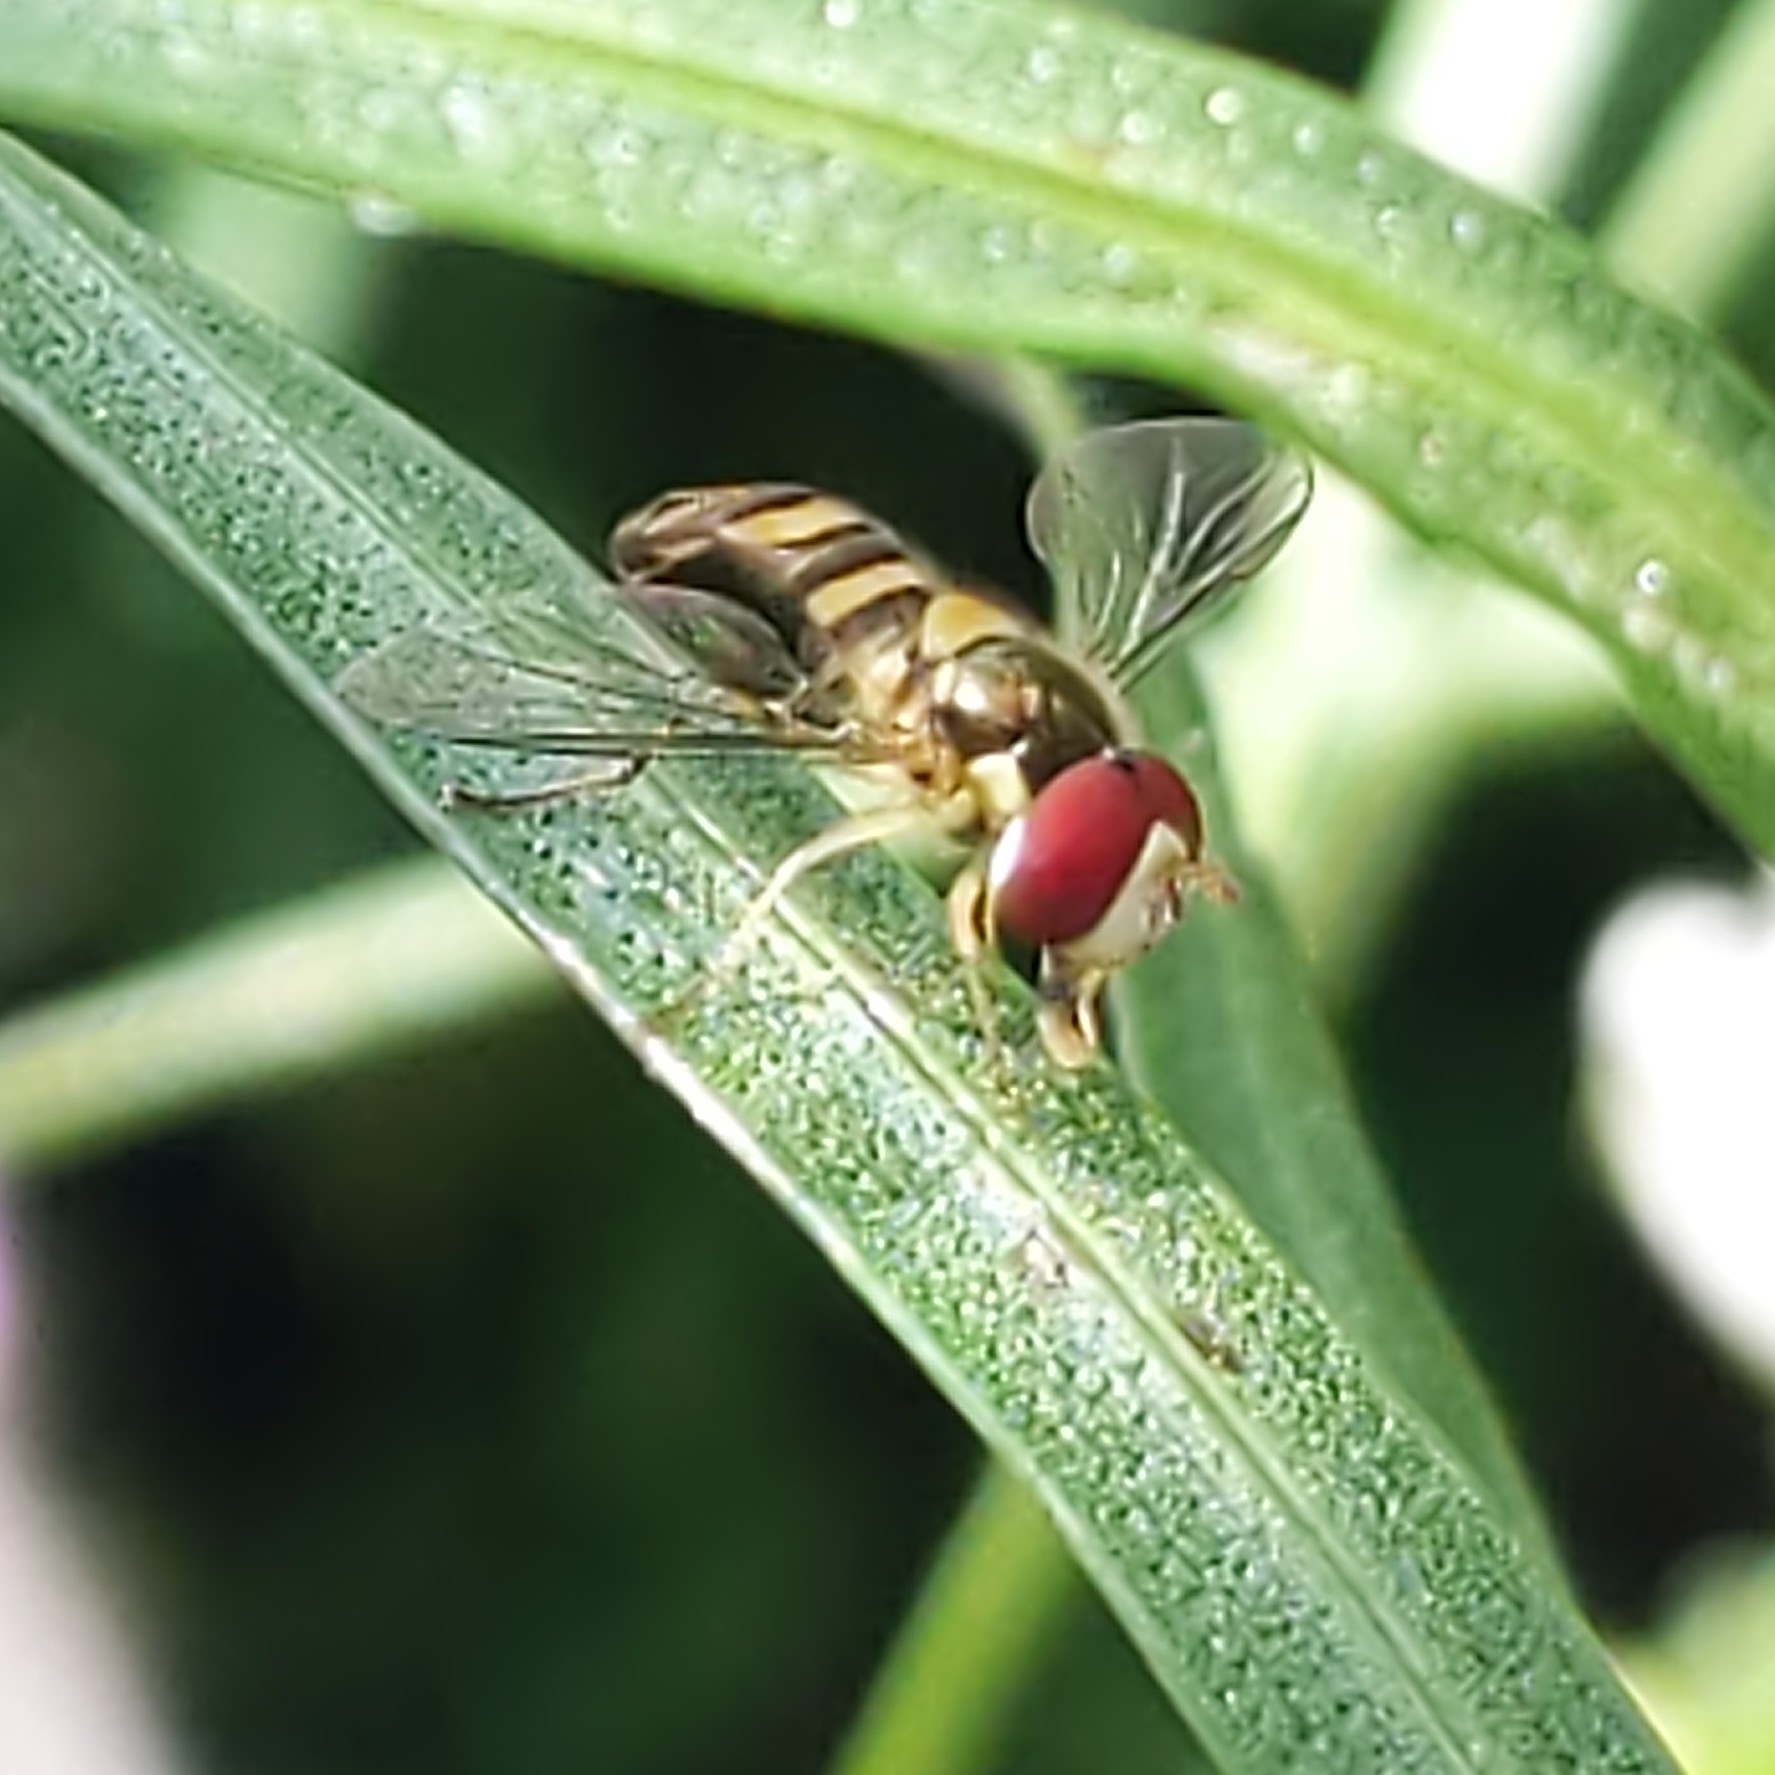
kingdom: Animalia
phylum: Arthropoda
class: Insecta
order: Diptera
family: Syrphidae
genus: Allograpta
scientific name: Allograpta obliqua
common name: Common oblique syrphid
